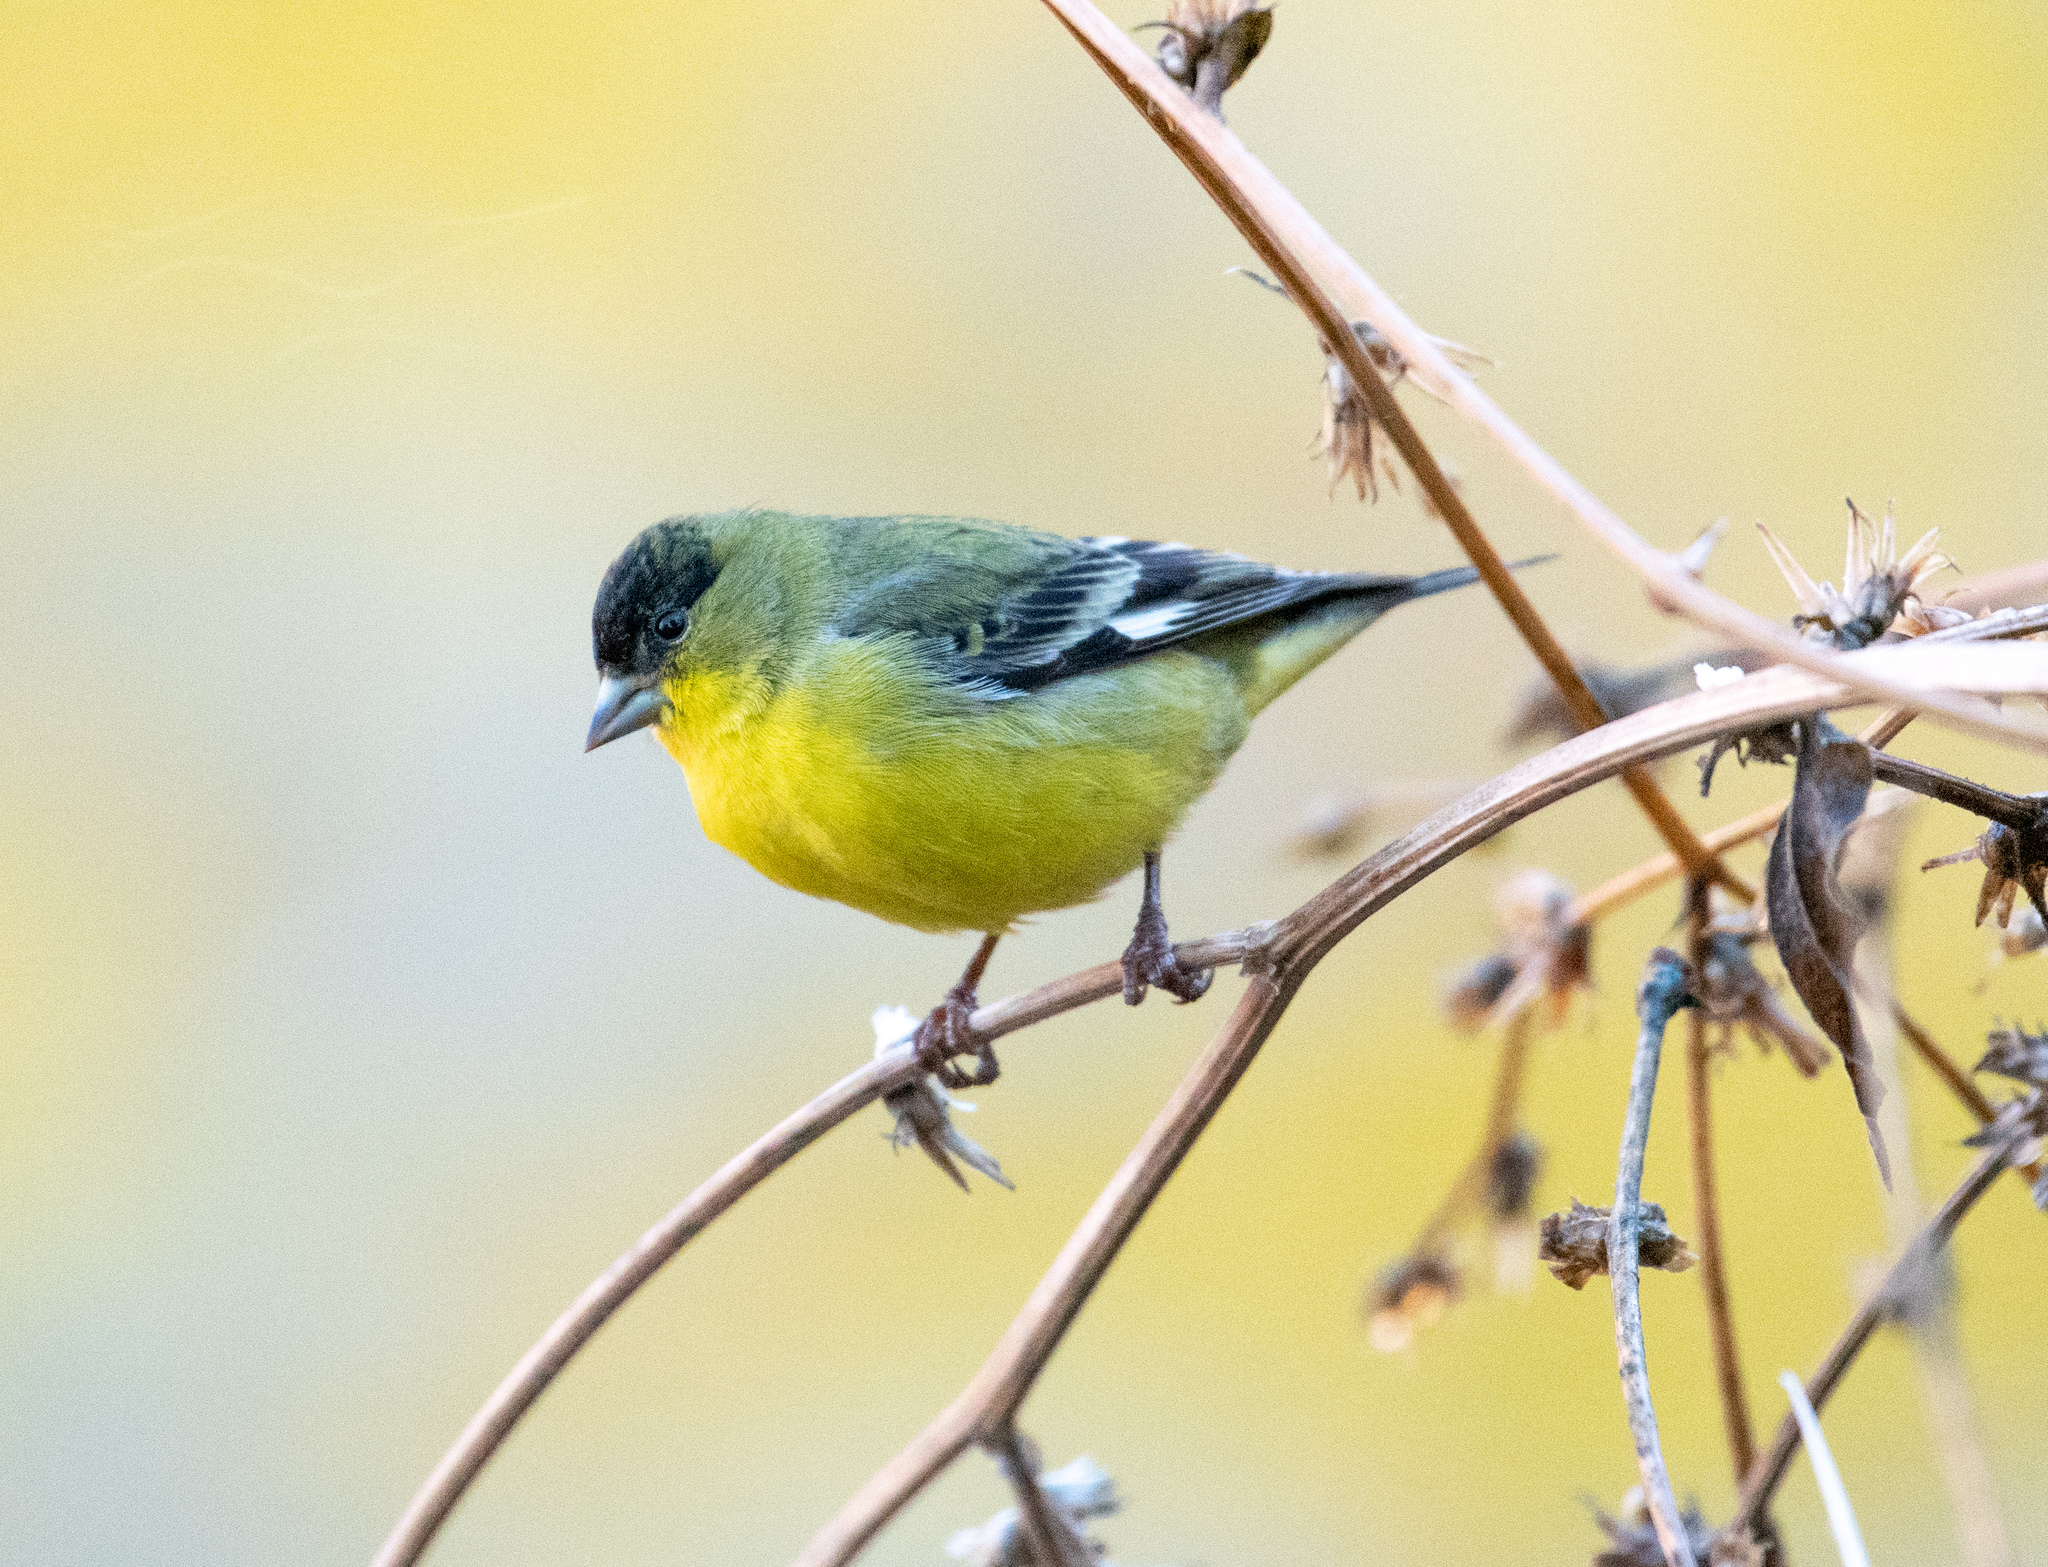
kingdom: Animalia
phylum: Chordata
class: Aves
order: Passeriformes
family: Fringillidae
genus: Spinus
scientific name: Spinus psaltria
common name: Lesser goldfinch
